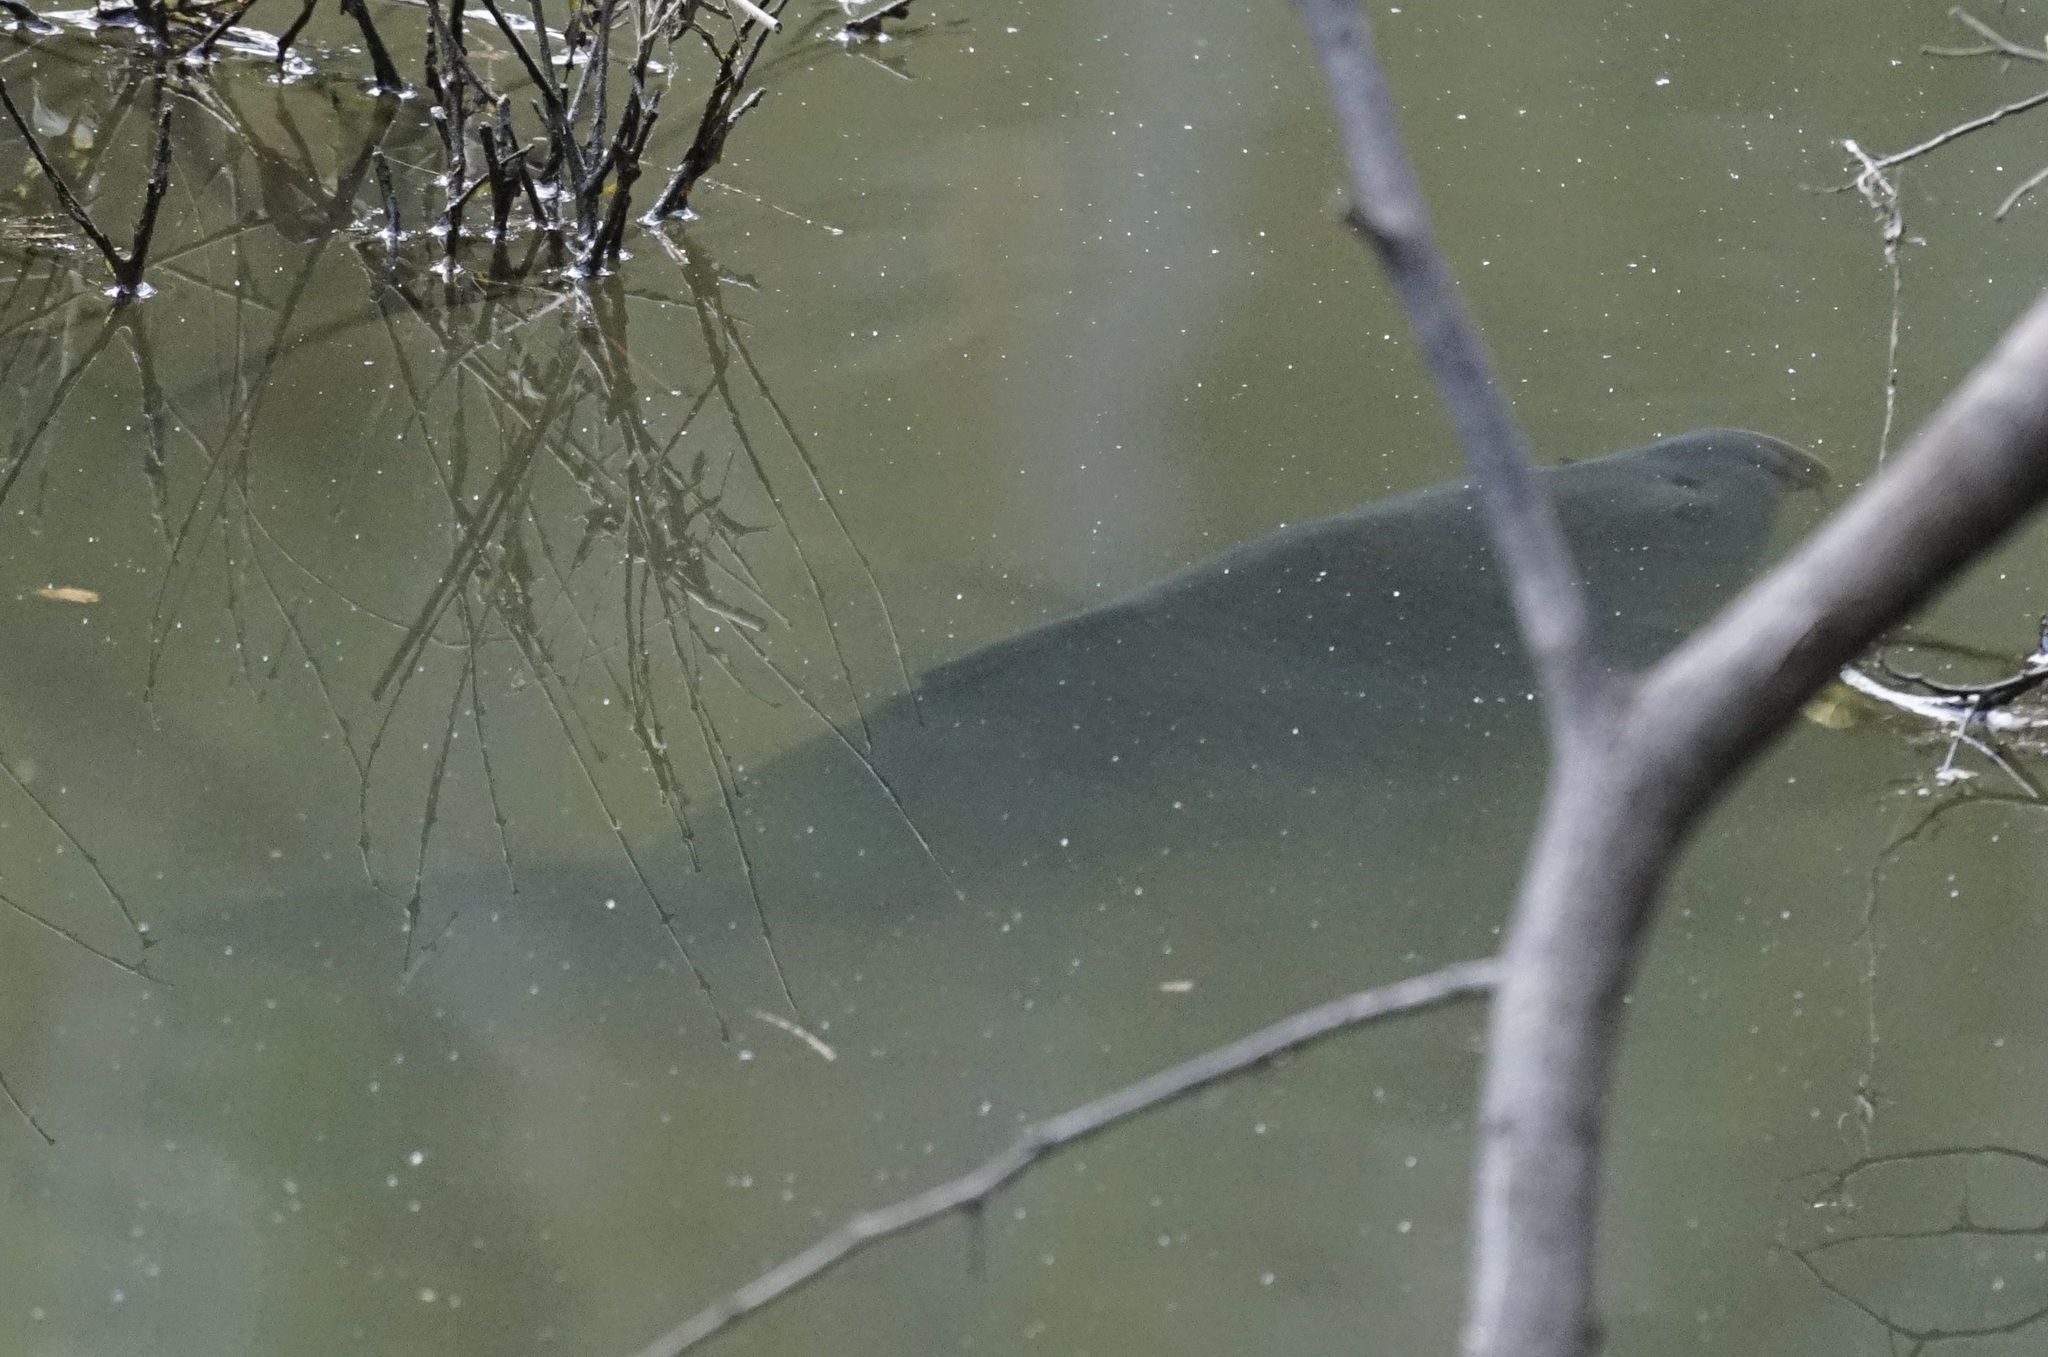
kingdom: Animalia
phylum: Chordata
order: Cypriniformes
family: Cyprinidae
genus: Cyprinus
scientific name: Cyprinus carpio
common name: Common carp
